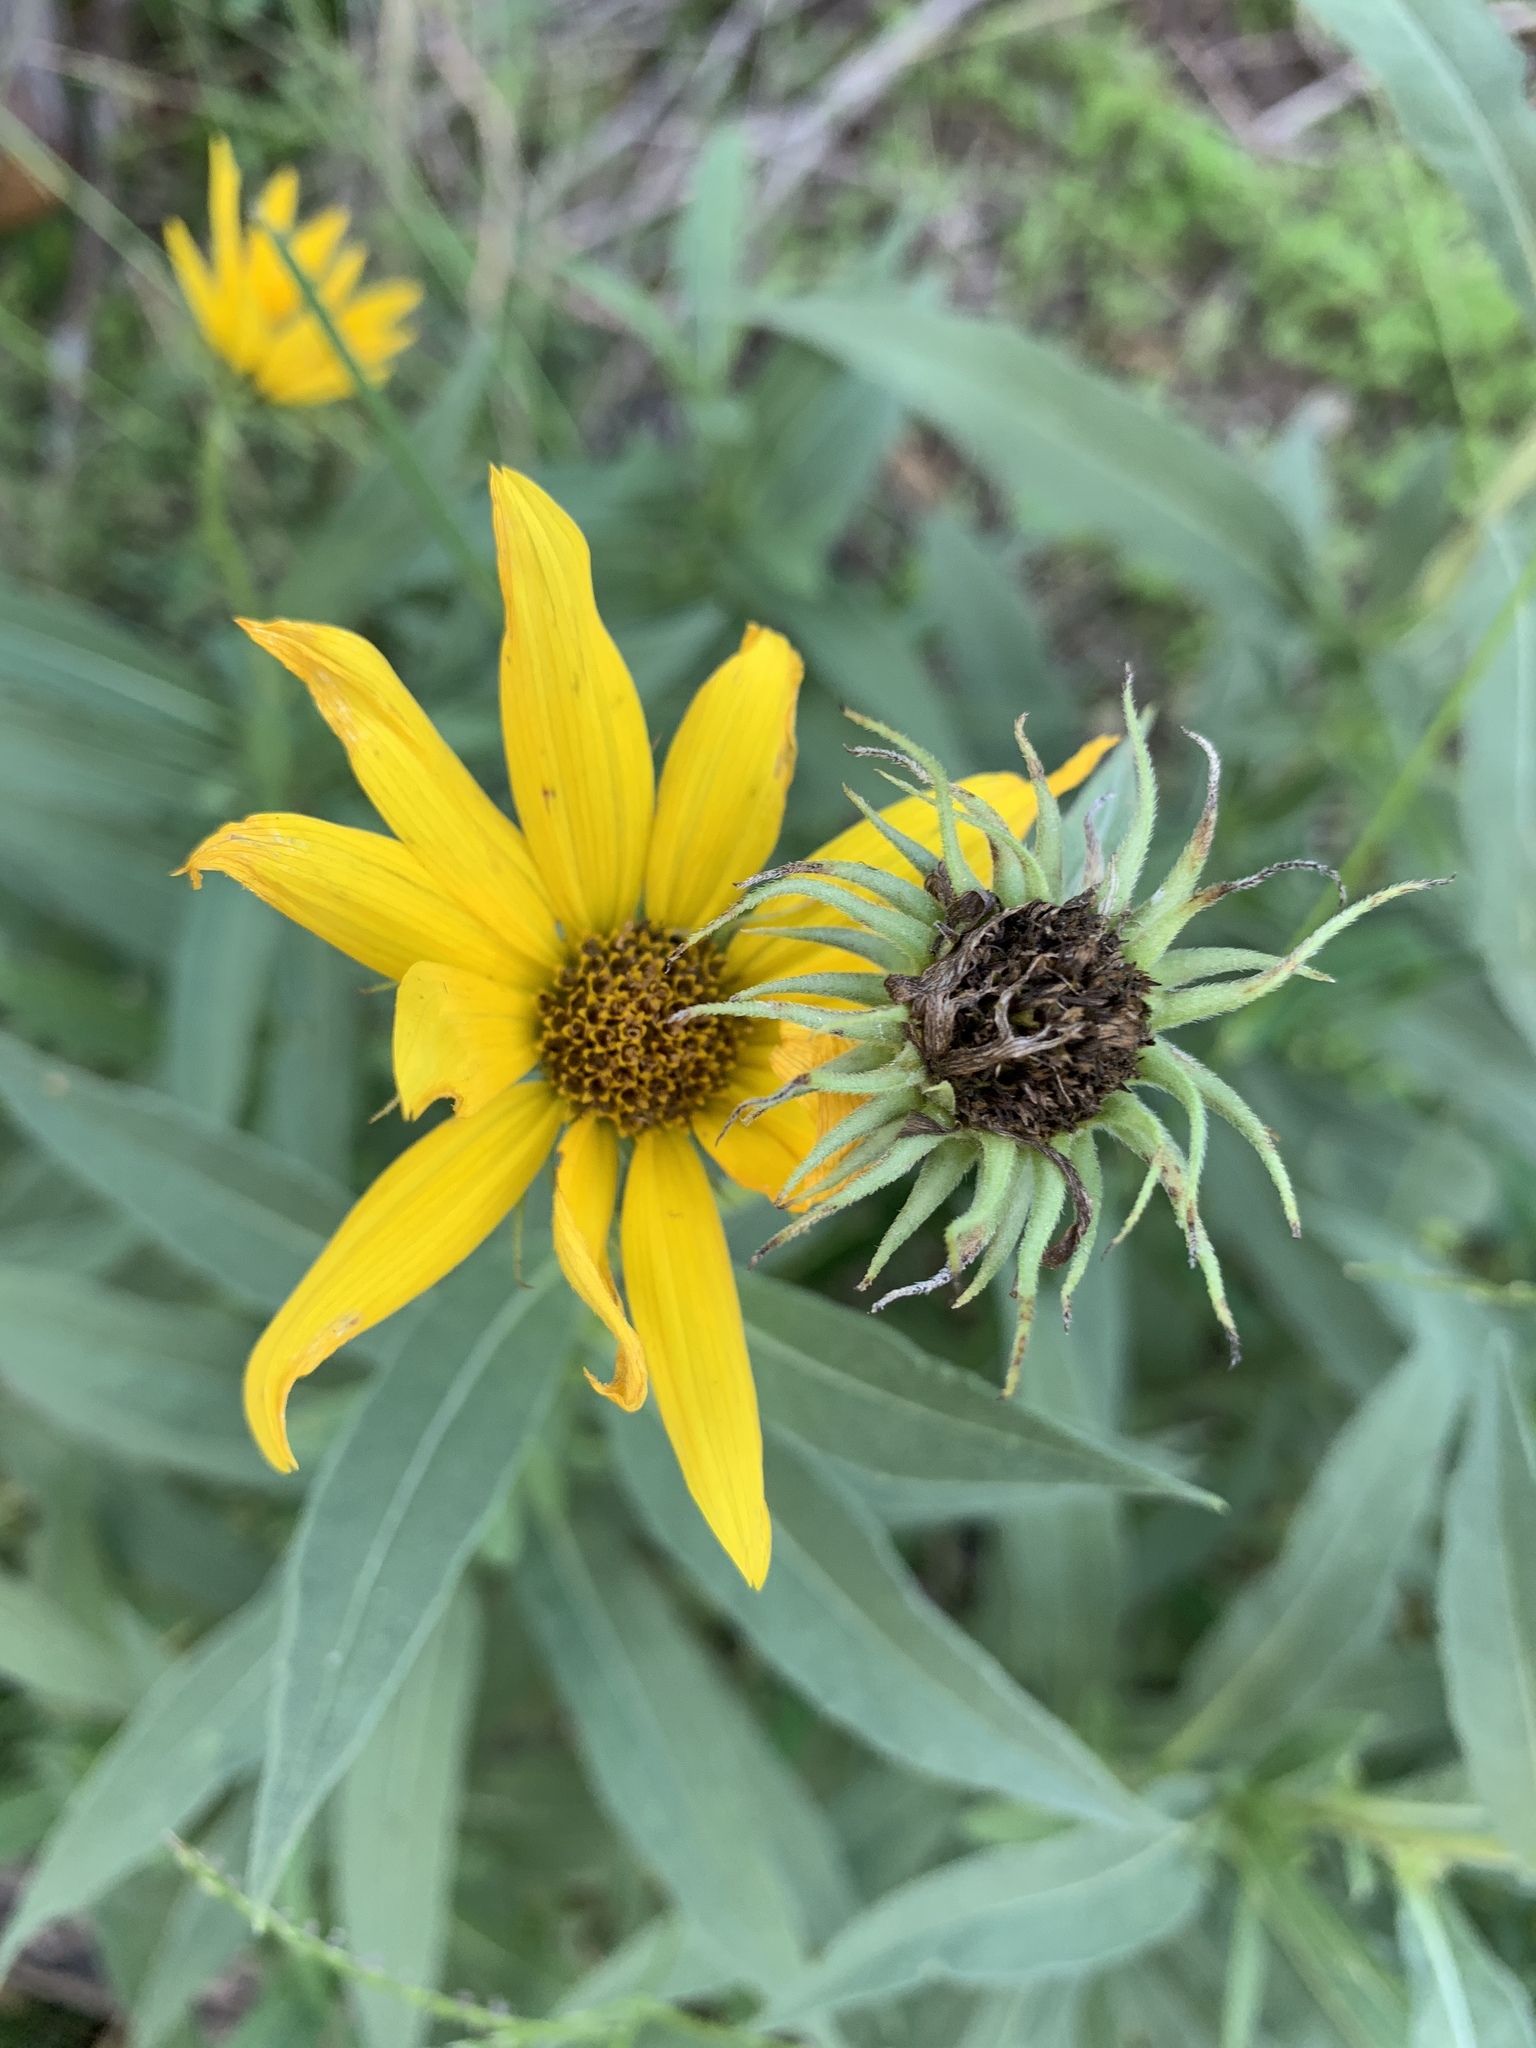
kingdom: Plantae
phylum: Tracheophyta
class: Magnoliopsida
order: Asterales
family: Asteraceae
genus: Helianthus
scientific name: Helianthus maximiliani
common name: Maximilian's sunflower
